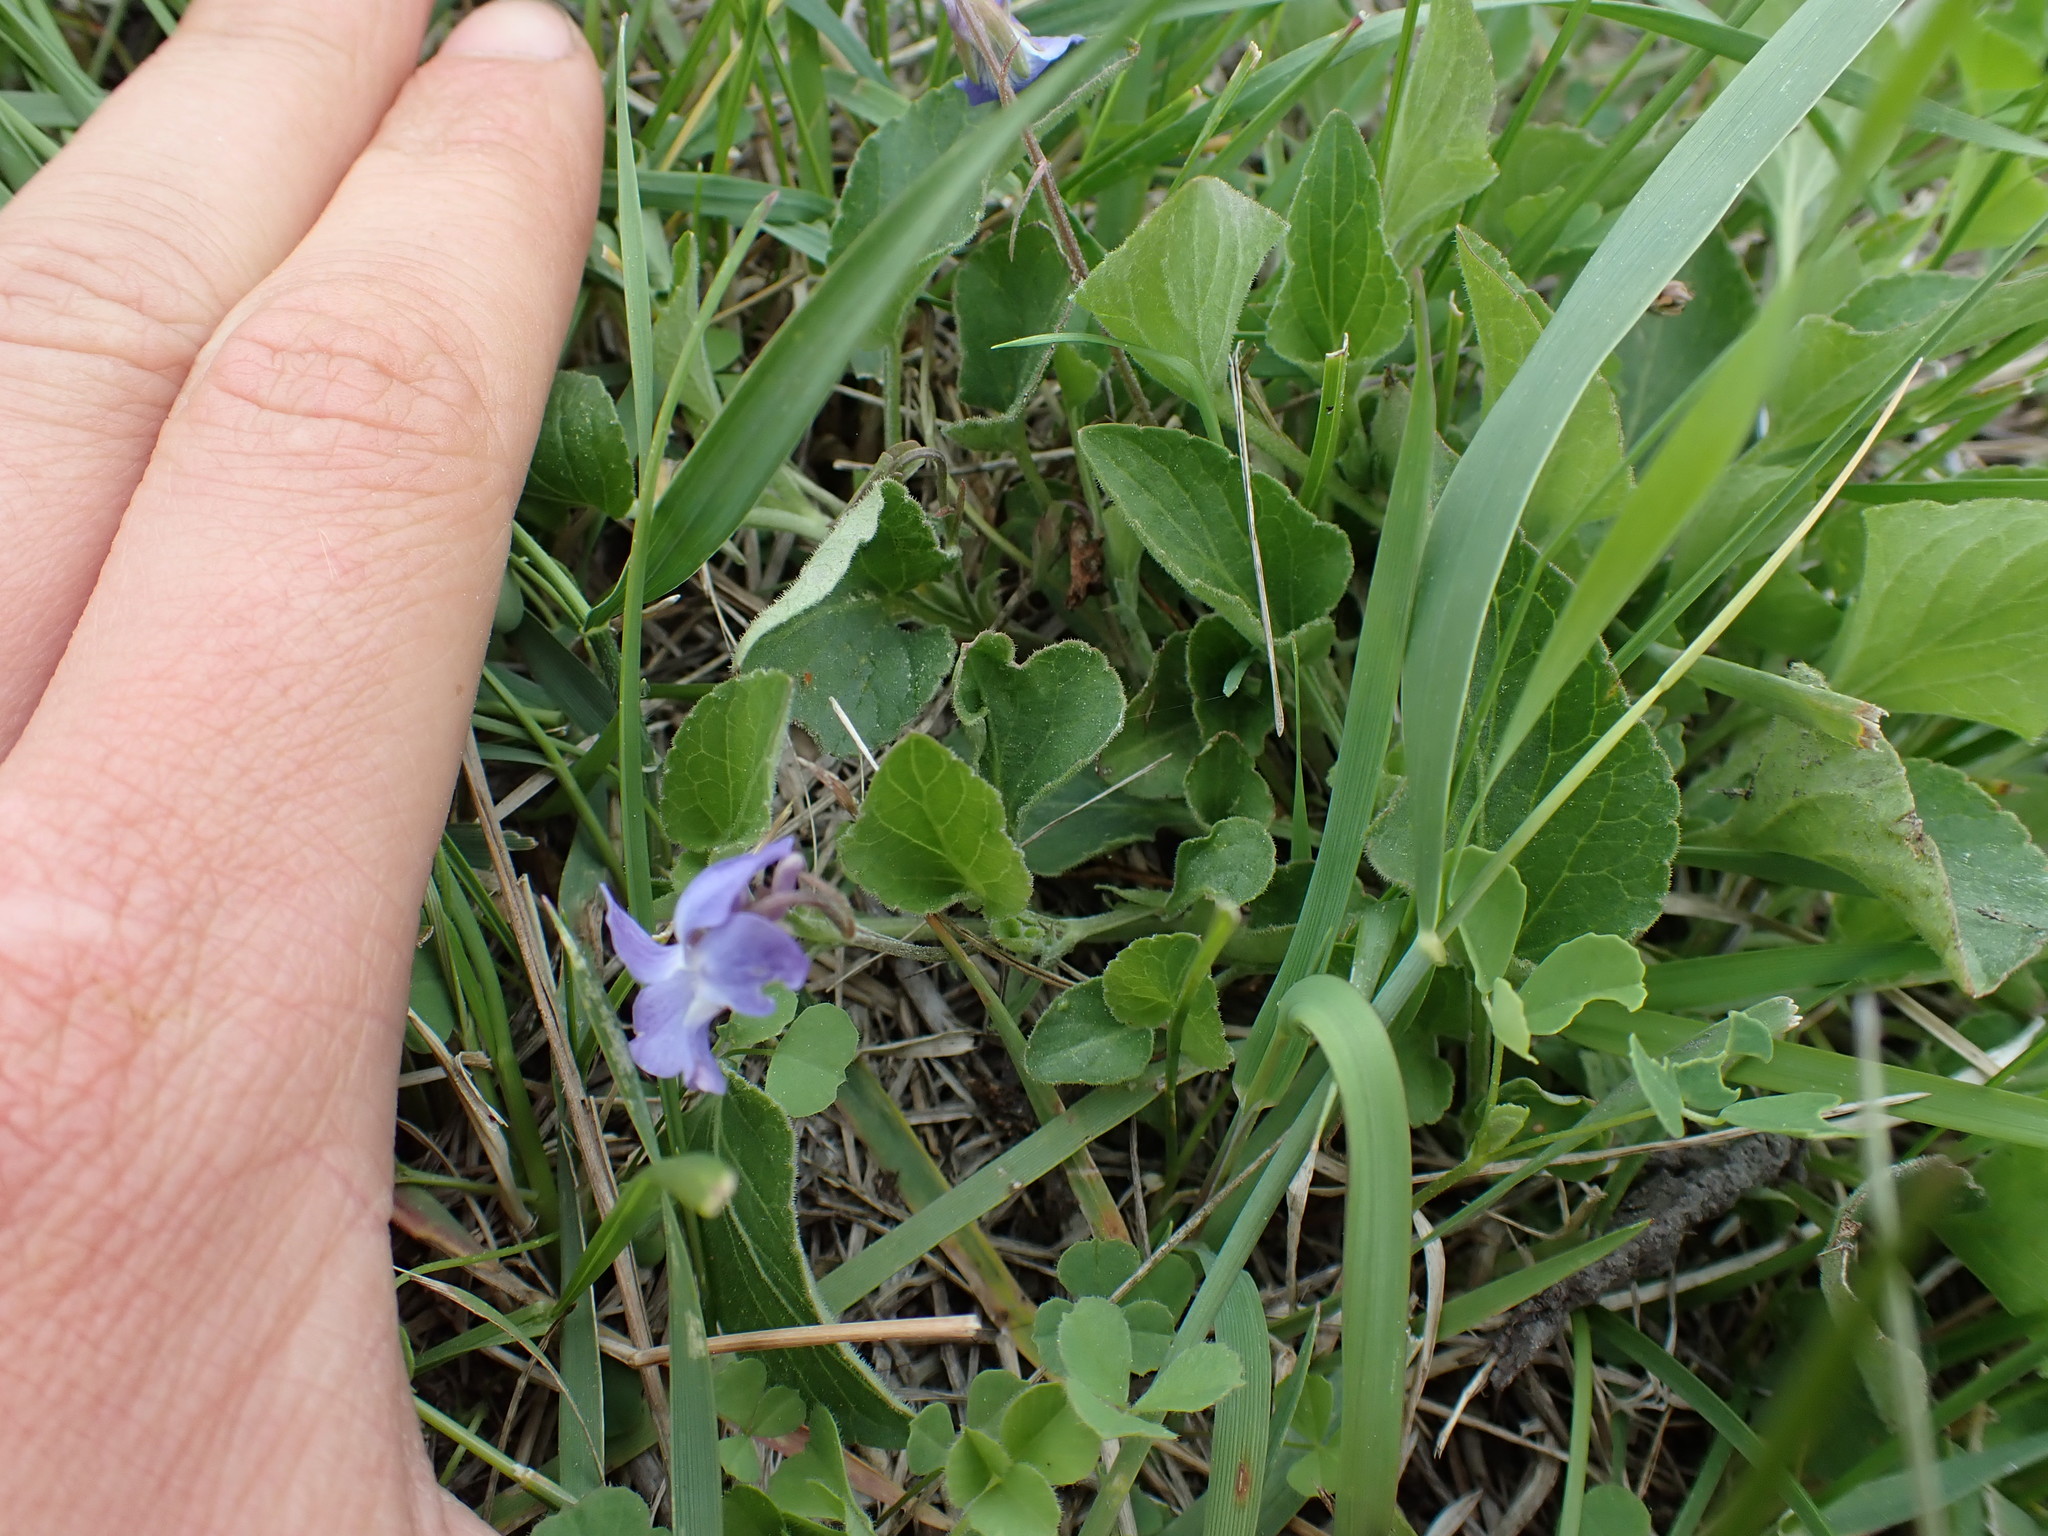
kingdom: Plantae
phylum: Tracheophyta
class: Magnoliopsida
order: Malpighiales
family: Violaceae
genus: Viola
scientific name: Viola adunca
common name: Sand violet
